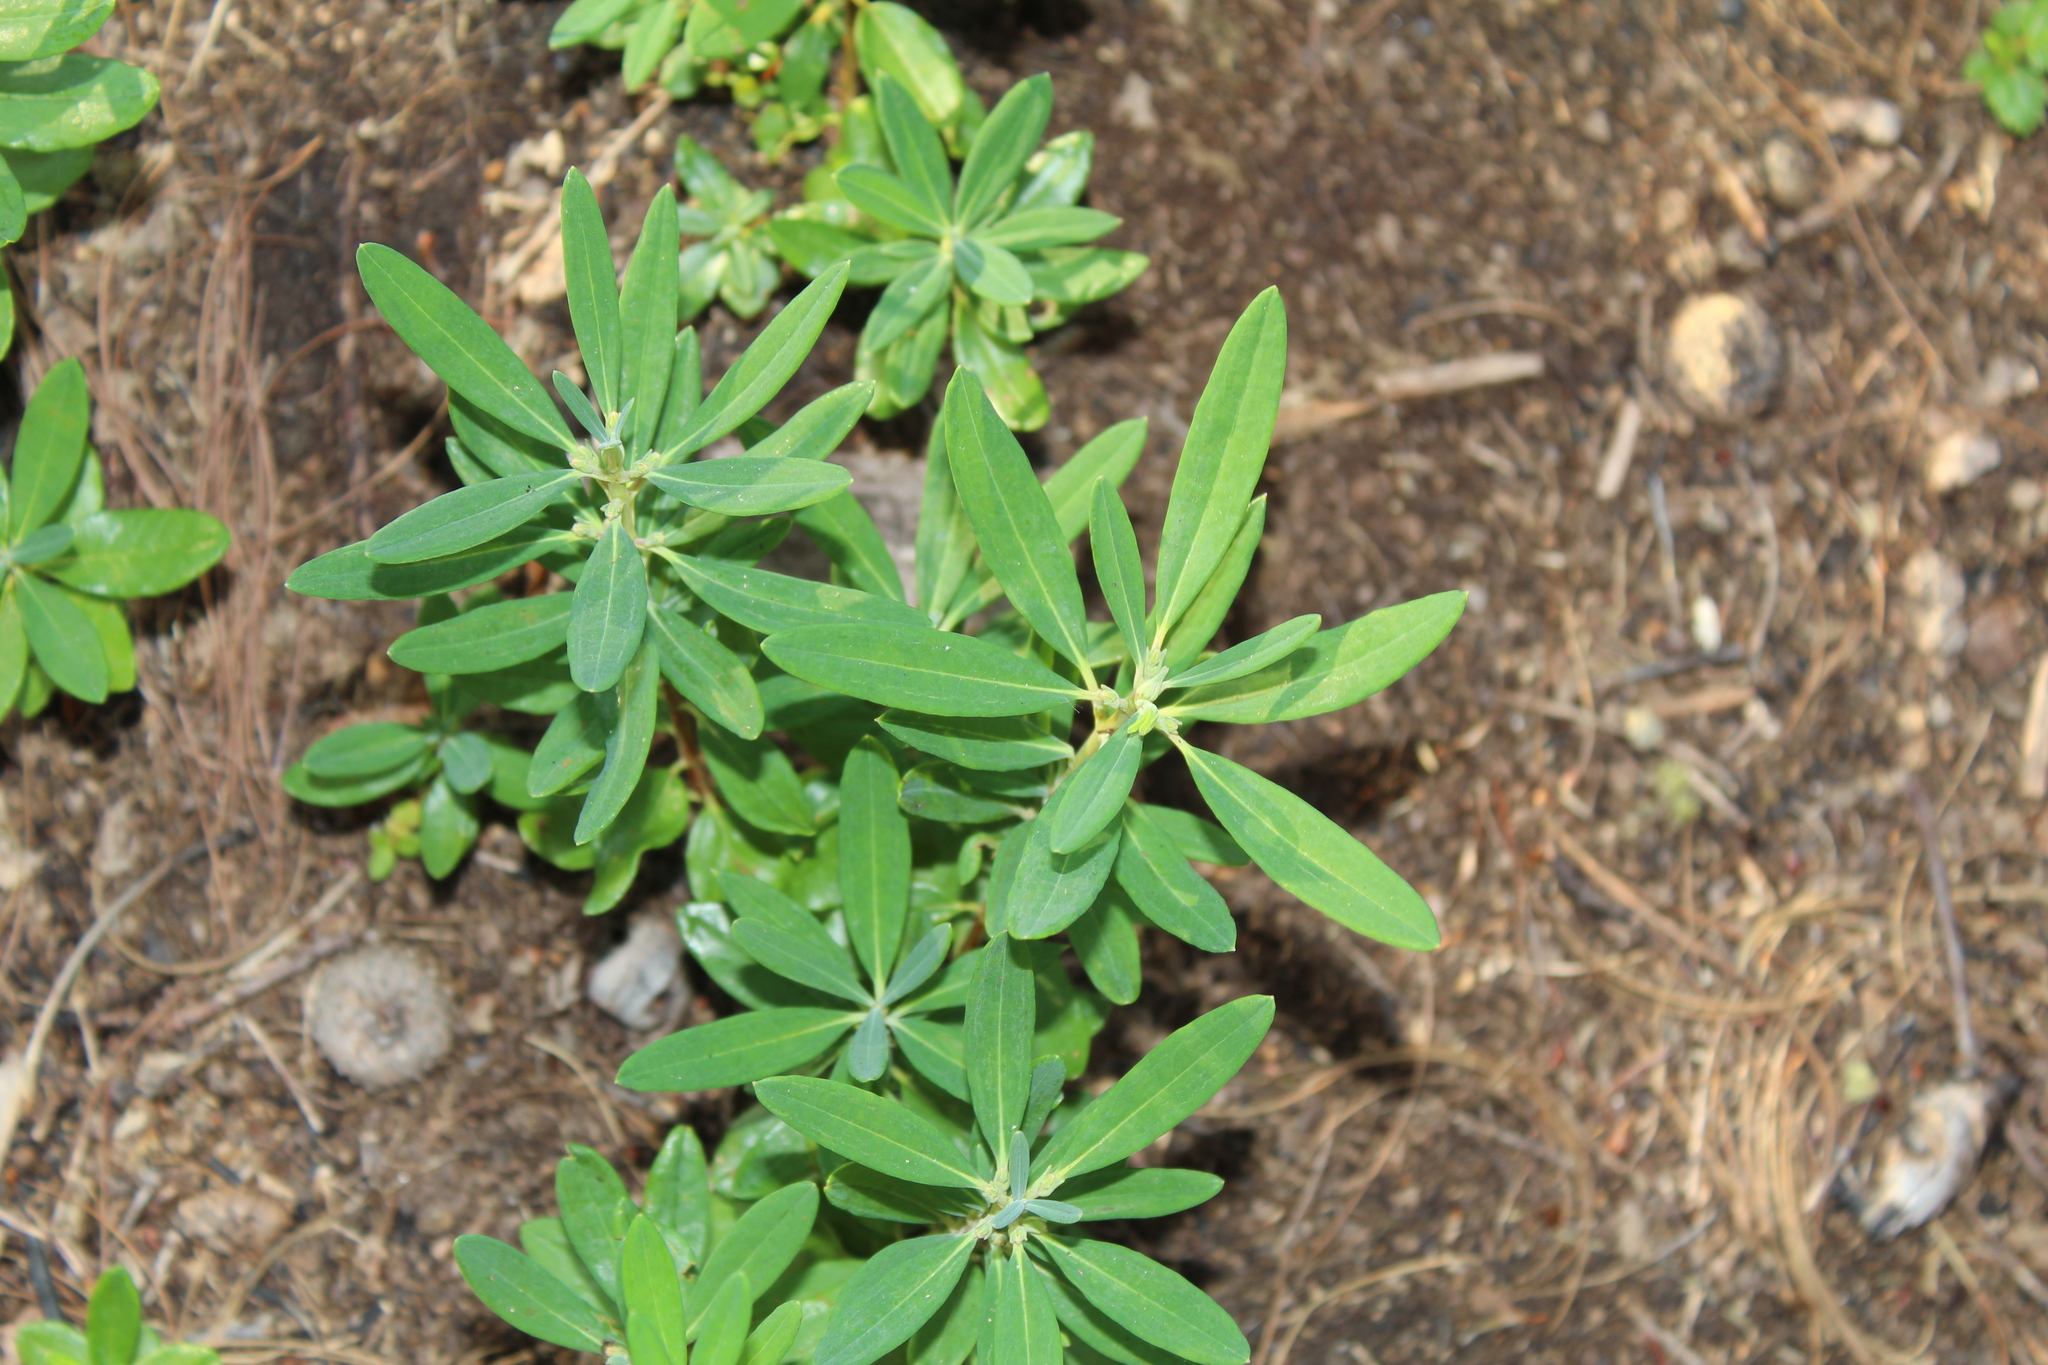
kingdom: Plantae
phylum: Tracheophyta
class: Magnoliopsida
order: Ericales
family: Ericaceae
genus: Kalmia
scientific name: Kalmia angustifolia
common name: Sheep-laurel
